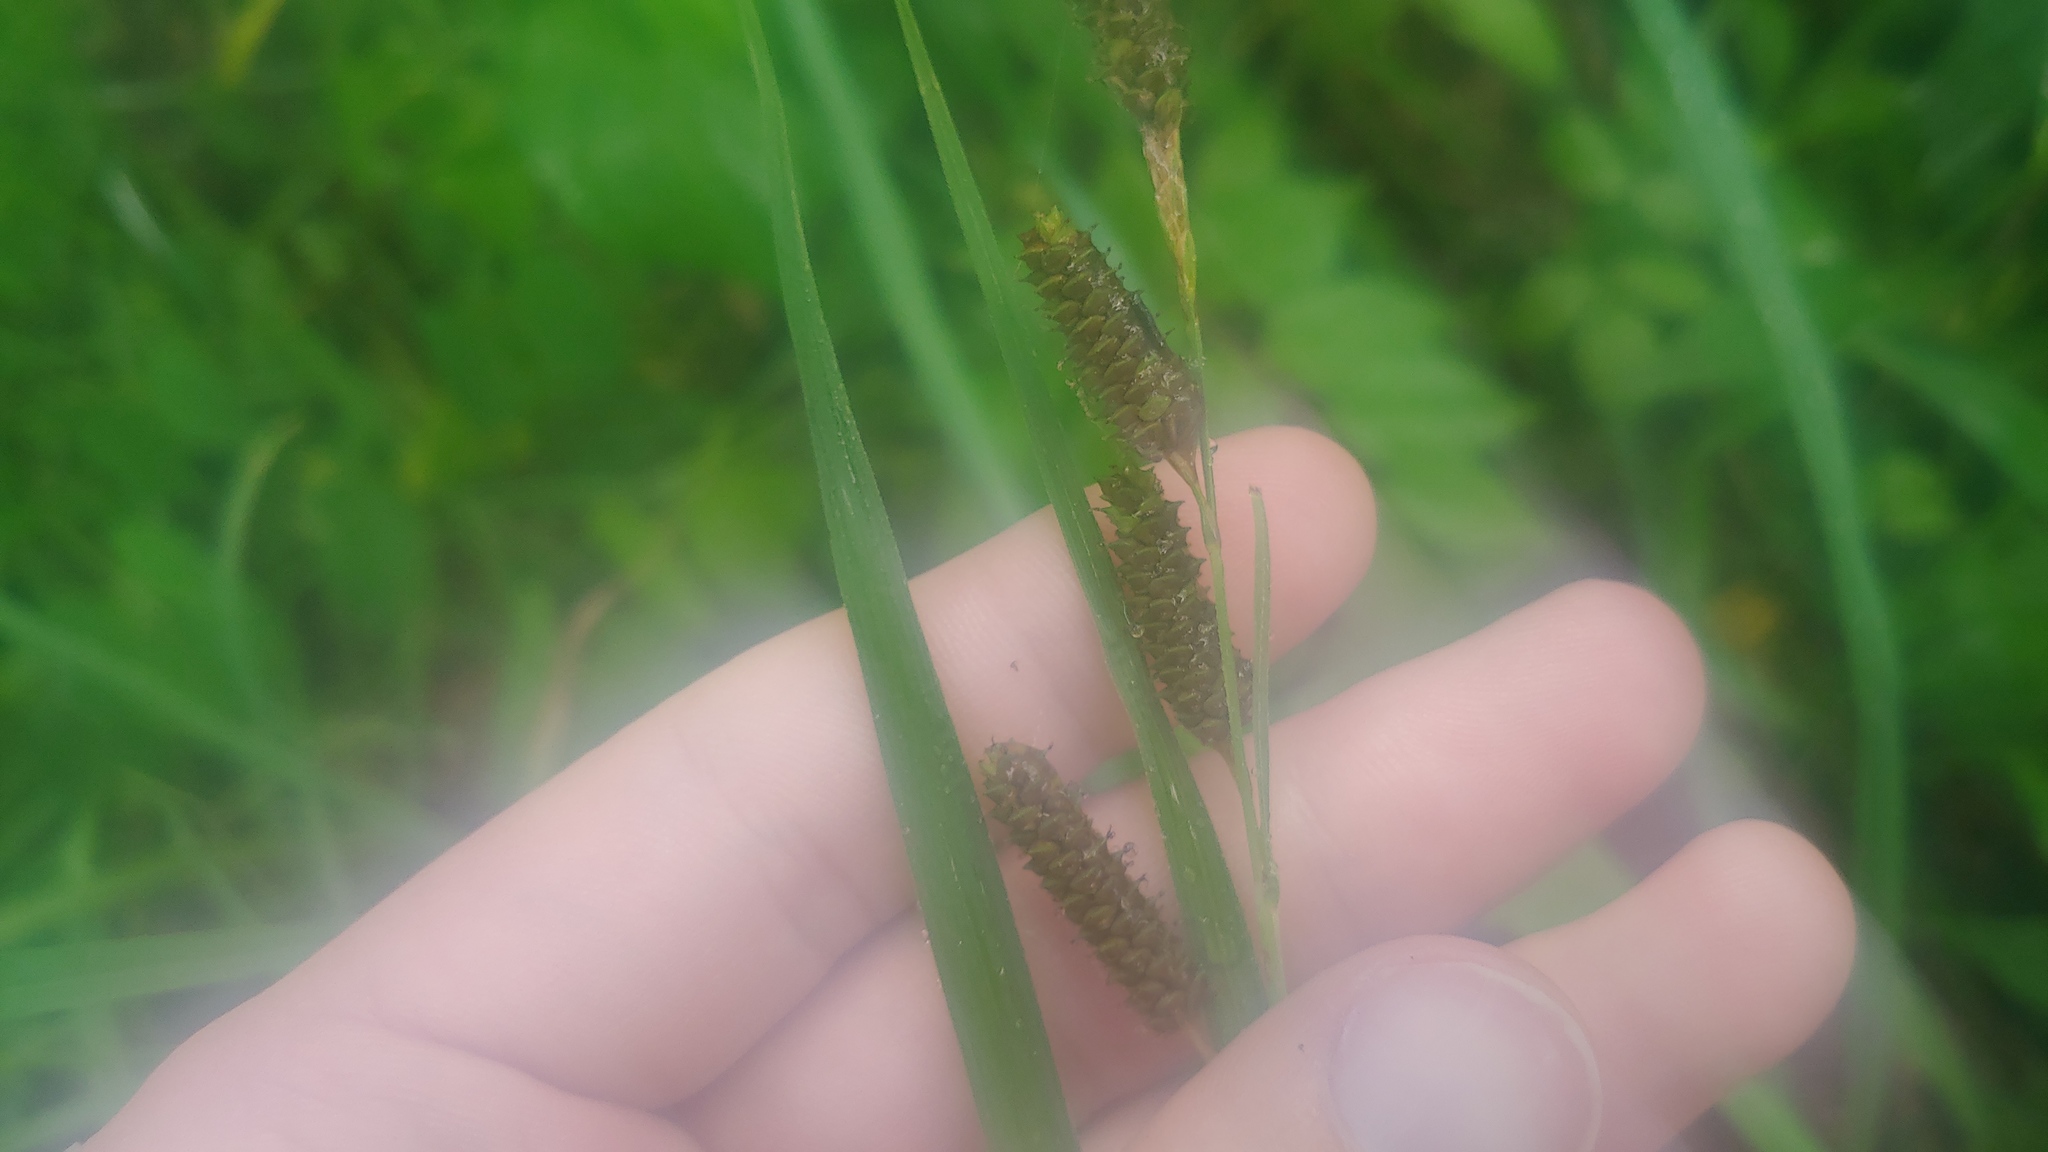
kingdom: Plantae
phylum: Tracheophyta
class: Liliopsida
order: Poales
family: Cyperaceae
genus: Carex
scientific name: Carex shortiana
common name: Short's sedge
